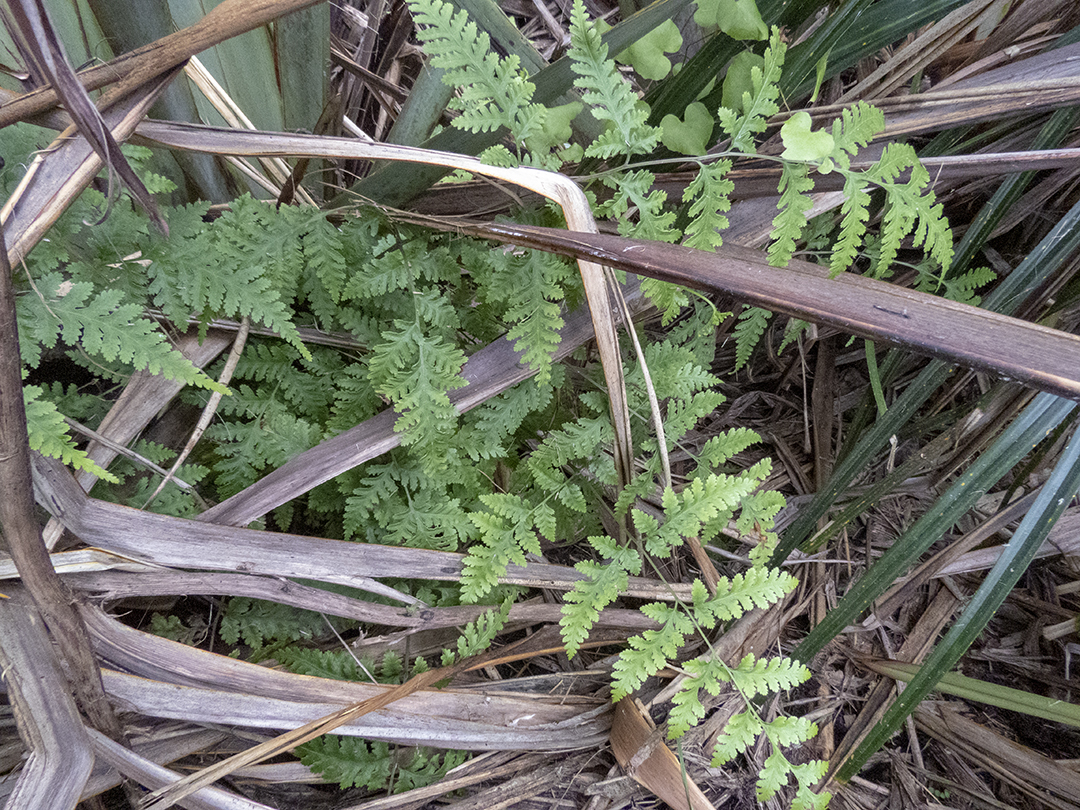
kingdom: Plantae
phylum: Tracheophyta
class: Polypodiopsida
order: Polypodiales
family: Pteridaceae
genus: Pteris
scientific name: Pteris macilenta
